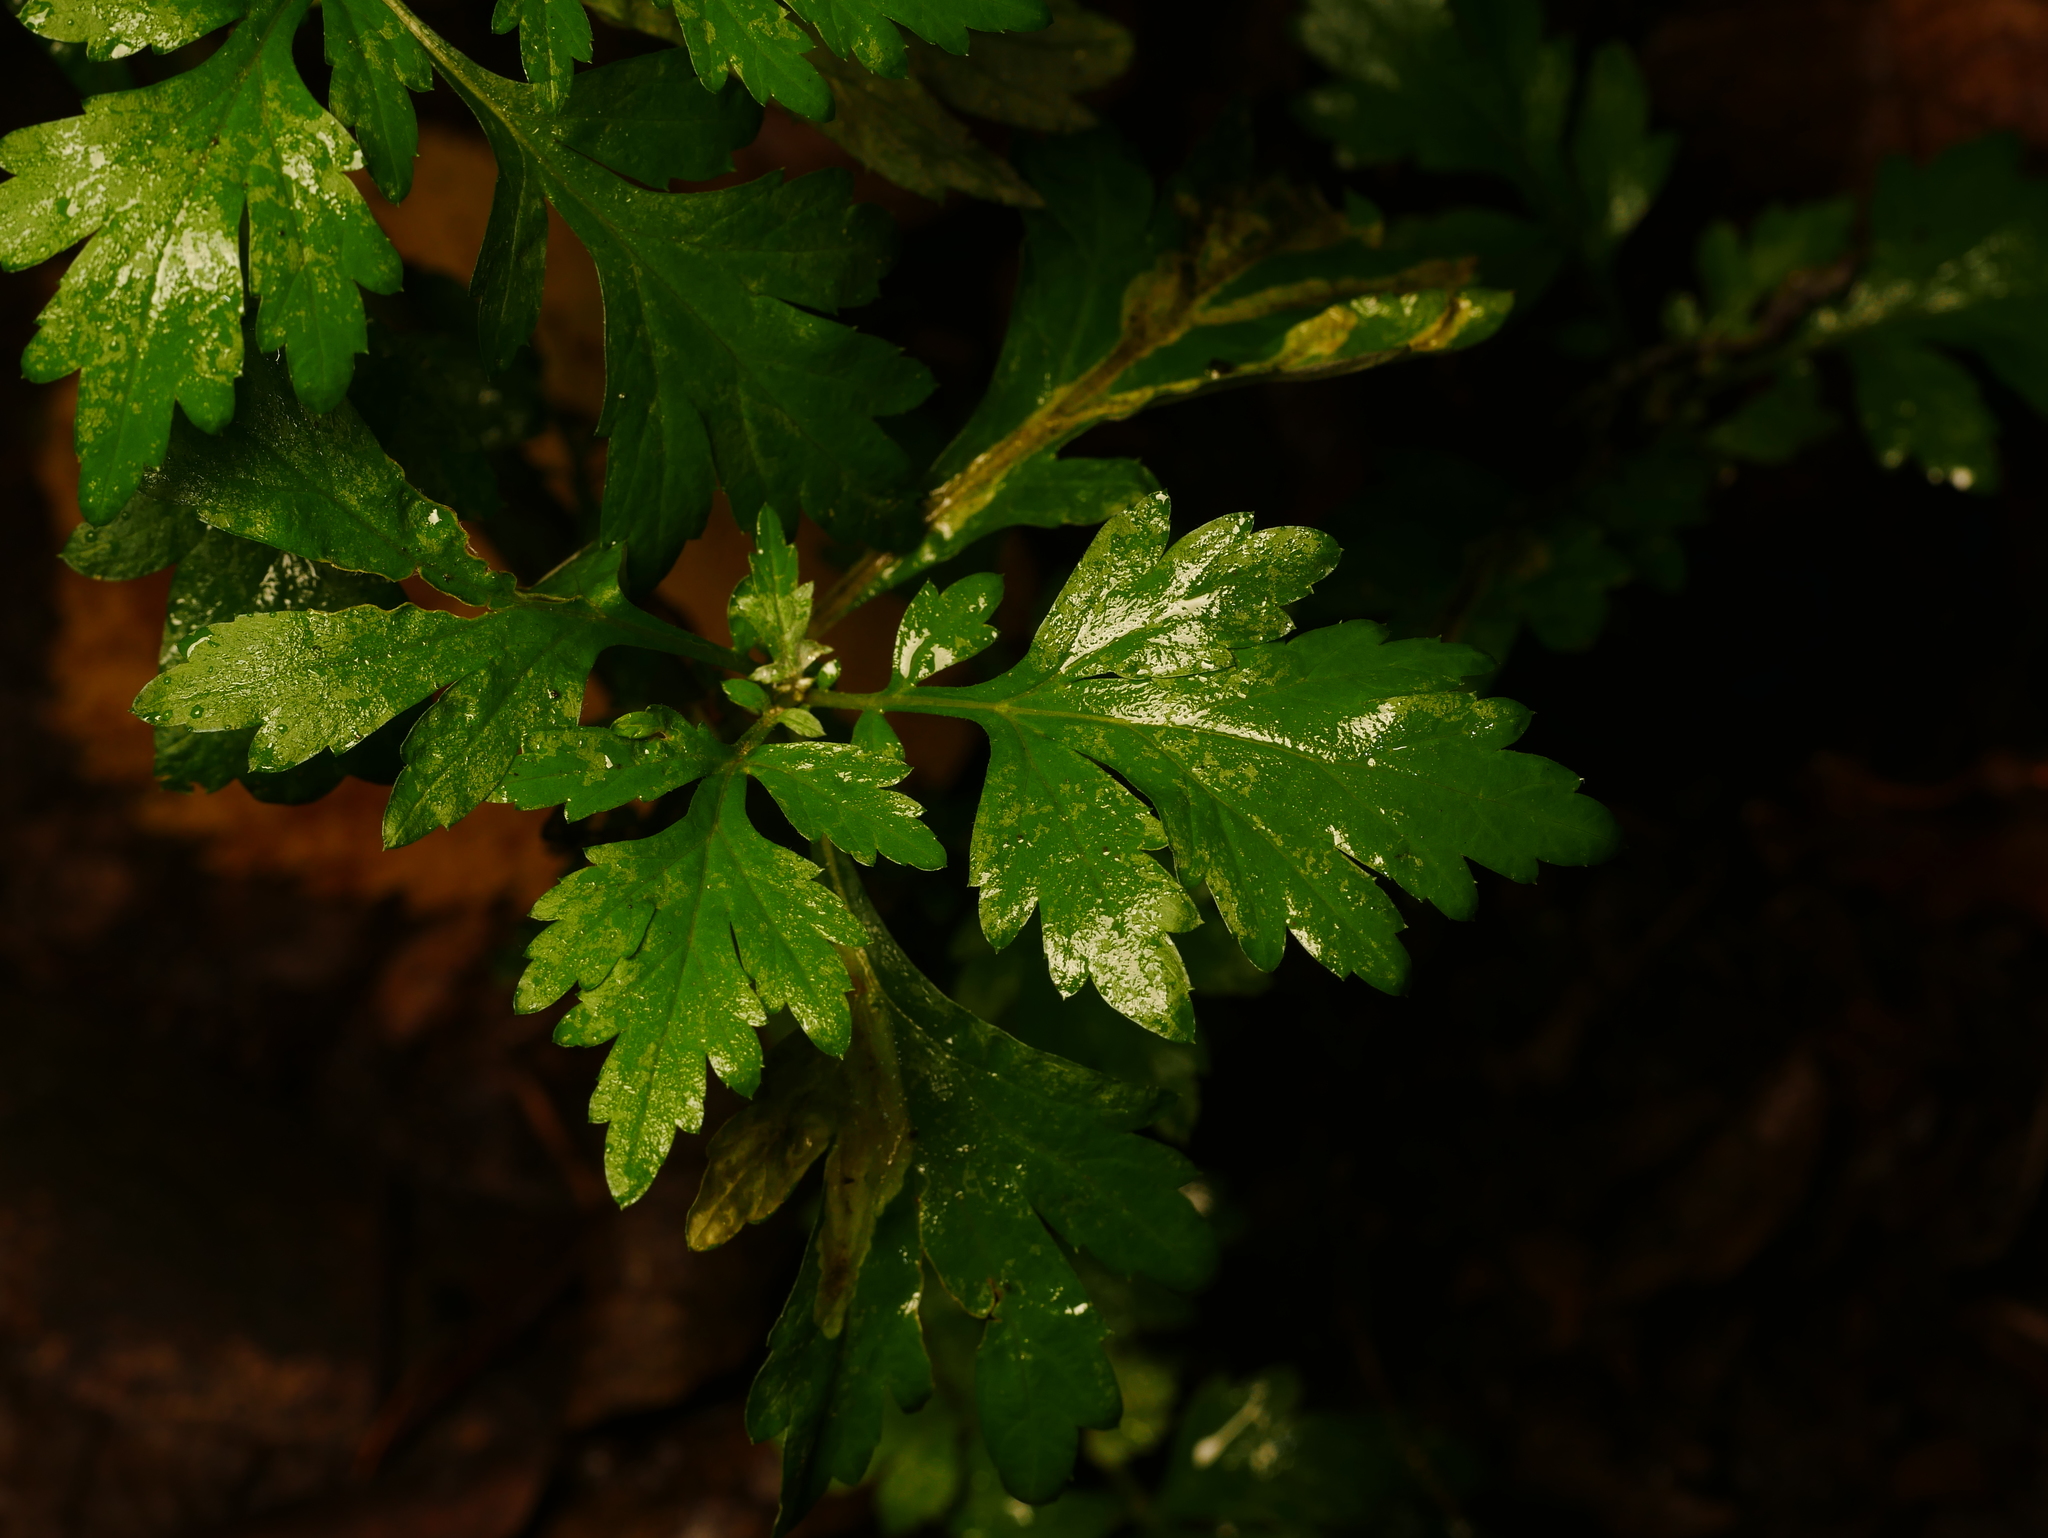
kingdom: Plantae
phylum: Tracheophyta
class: Magnoliopsida
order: Asterales
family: Asteraceae
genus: Artemisia
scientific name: Artemisia vulgaris
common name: Mugwort
